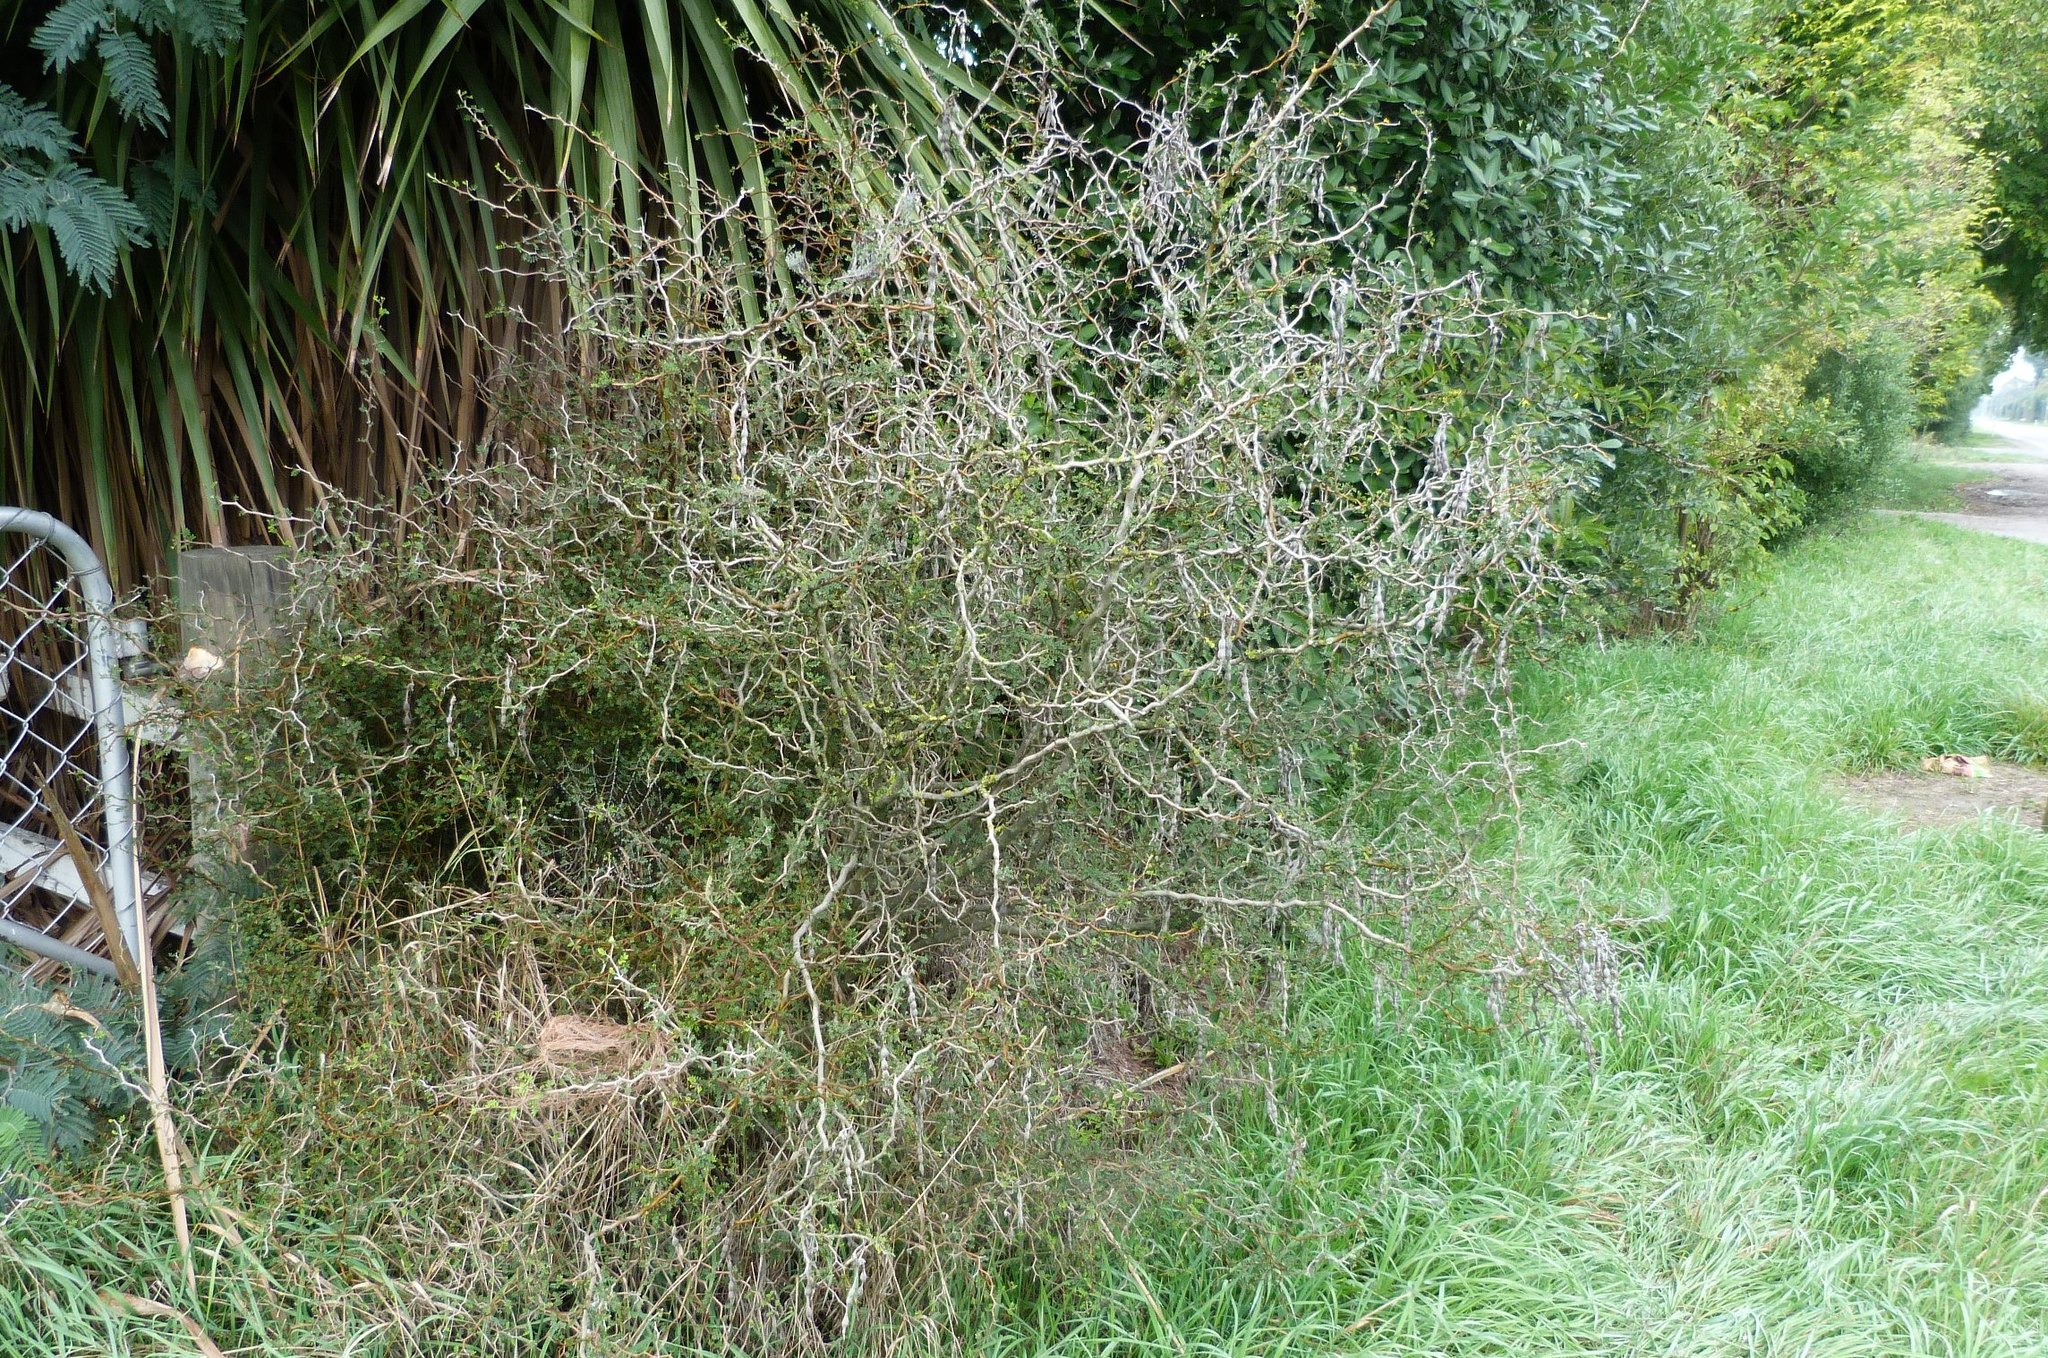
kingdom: Plantae
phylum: Tracheophyta
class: Magnoliopsida
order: Fabales
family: Fabaceae
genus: Sophora
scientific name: Sophora prostrata
